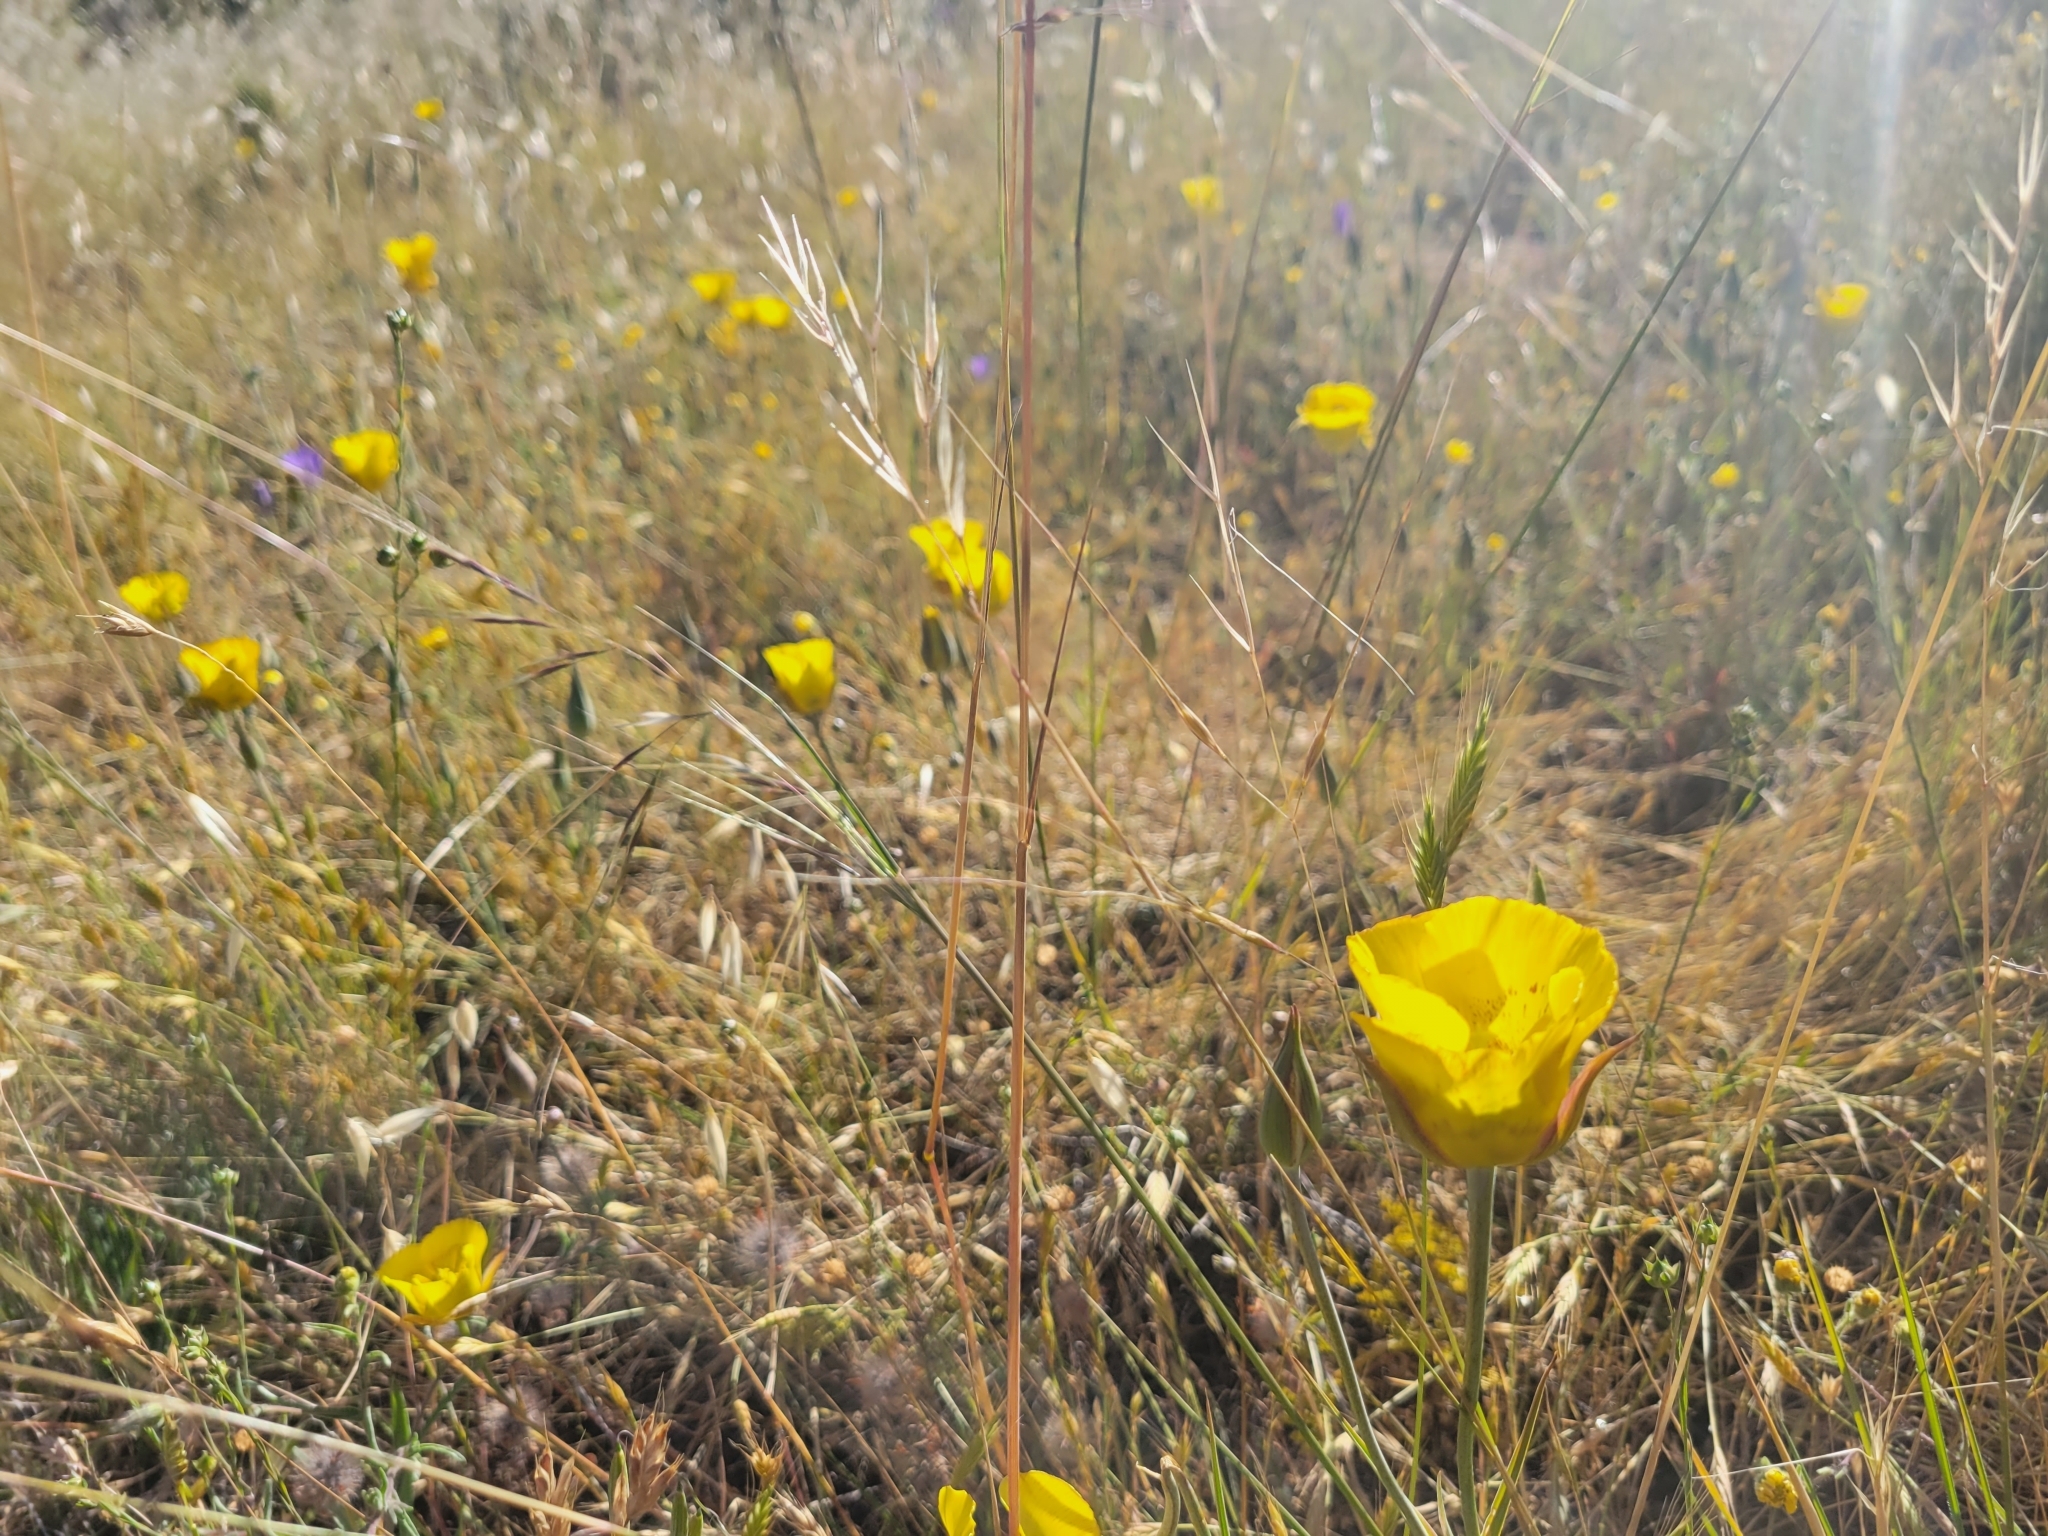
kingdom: Plantae
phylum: Tracheophyta
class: Liliopsida
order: Liliales
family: Liliaceae
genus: Calochortus
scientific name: Calochortus luteus
